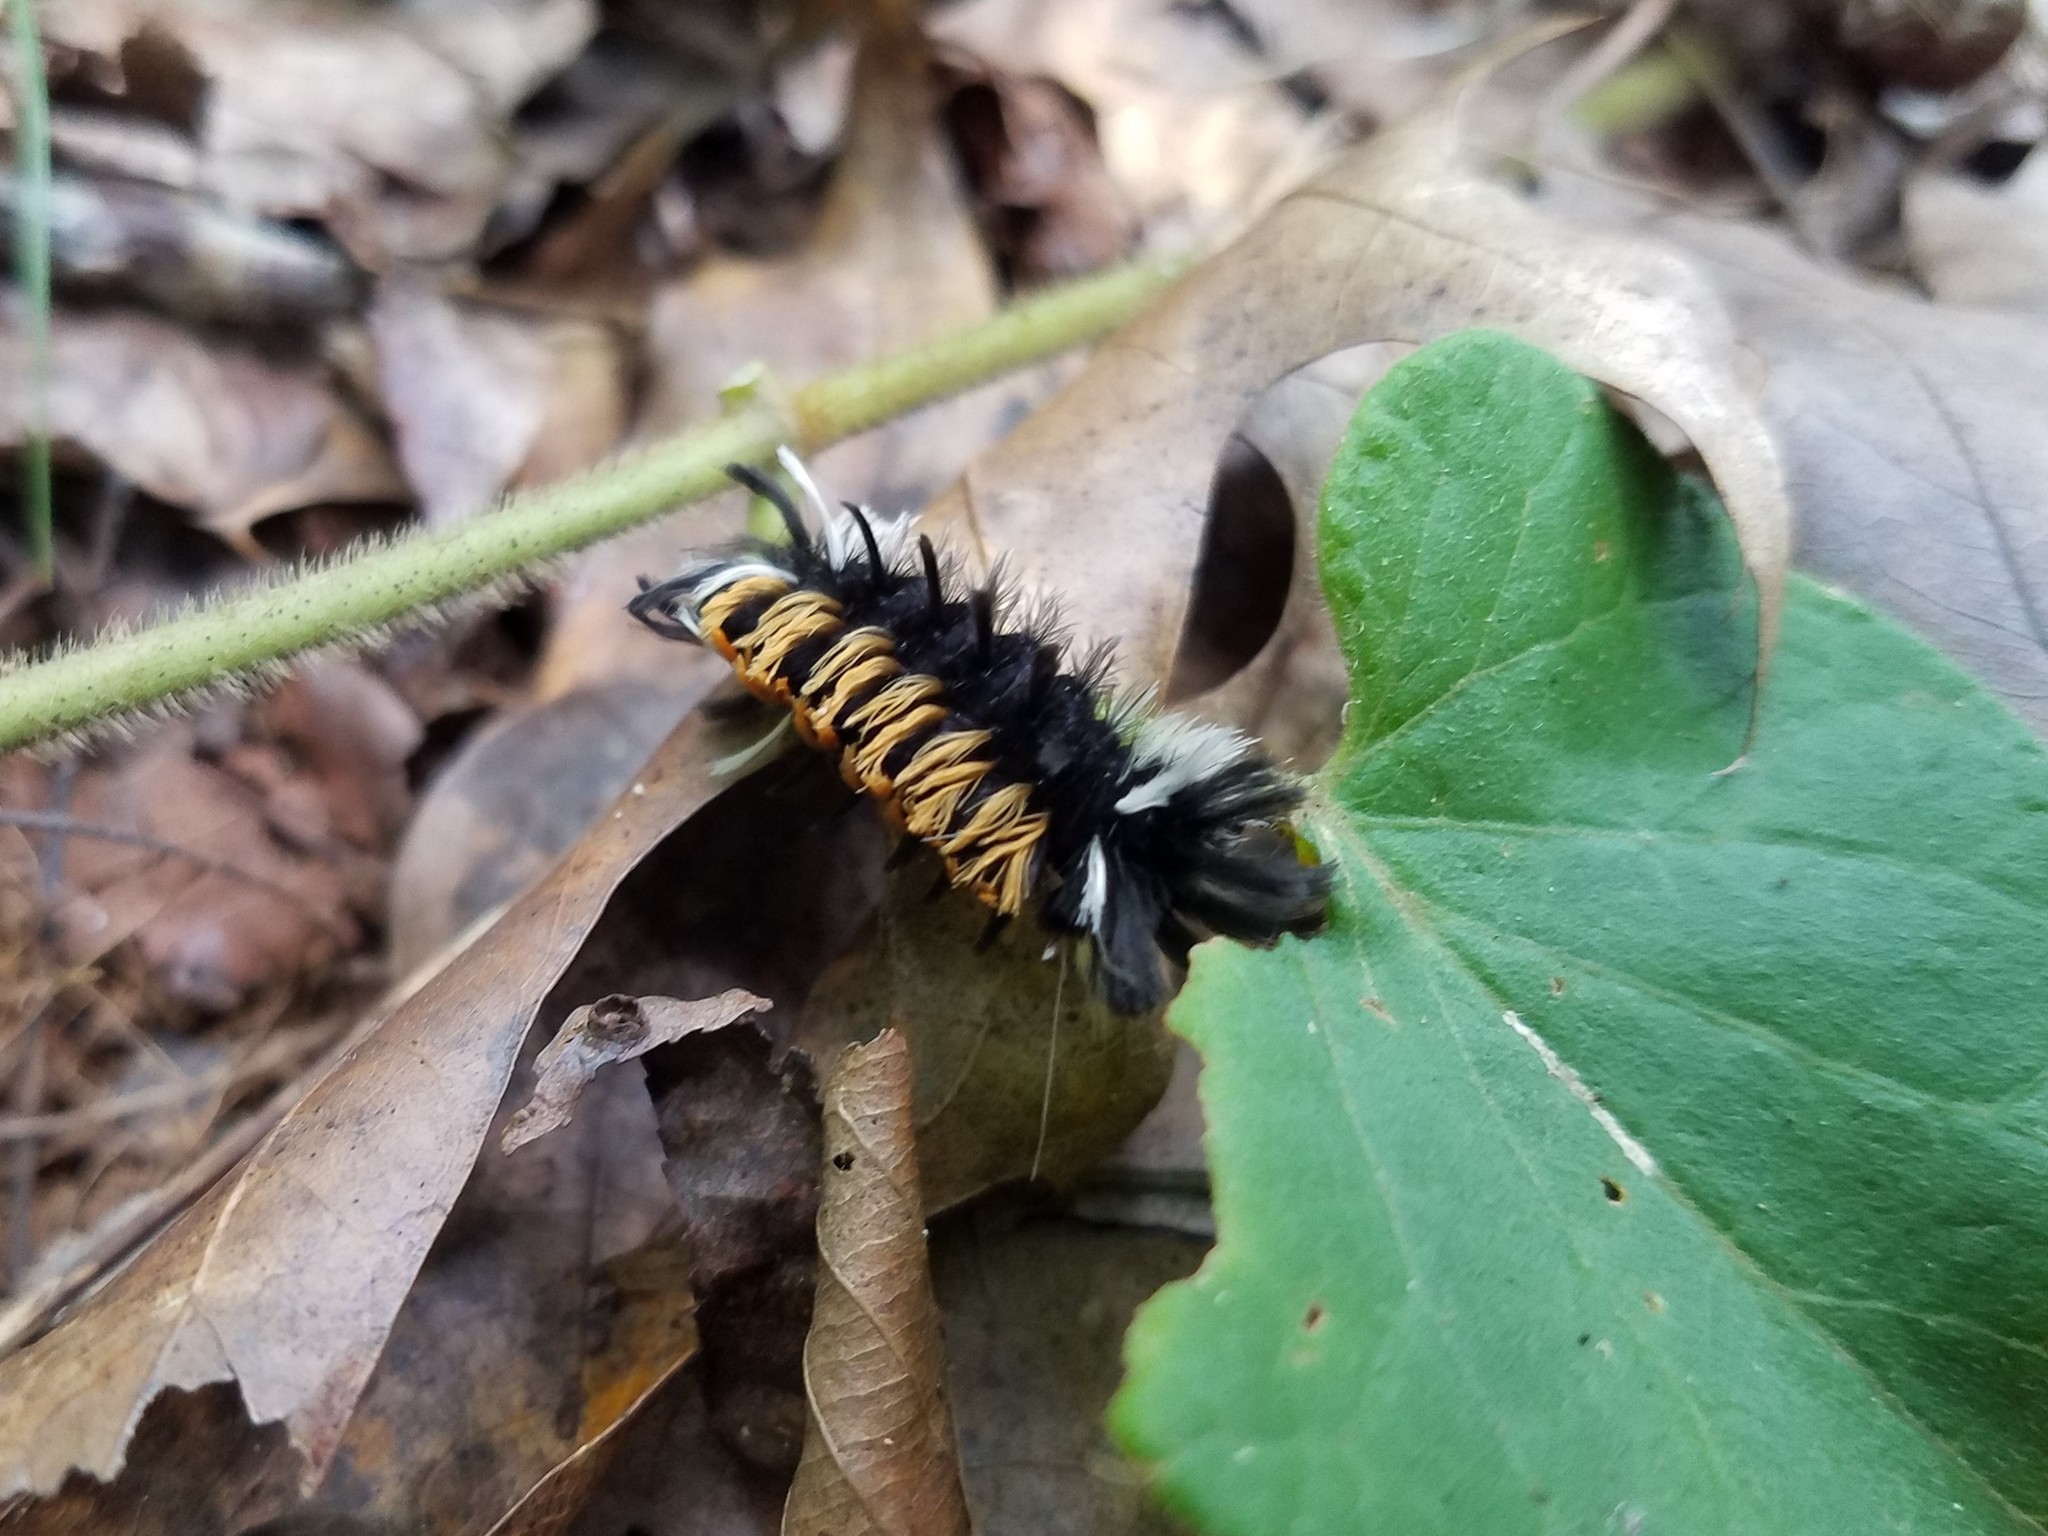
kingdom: Animalia
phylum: Arthropoda
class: Insecta
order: Lepidoptera
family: Erebidae
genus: Euchaetes
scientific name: Euchaetes egle
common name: Milkweed tussock moth
